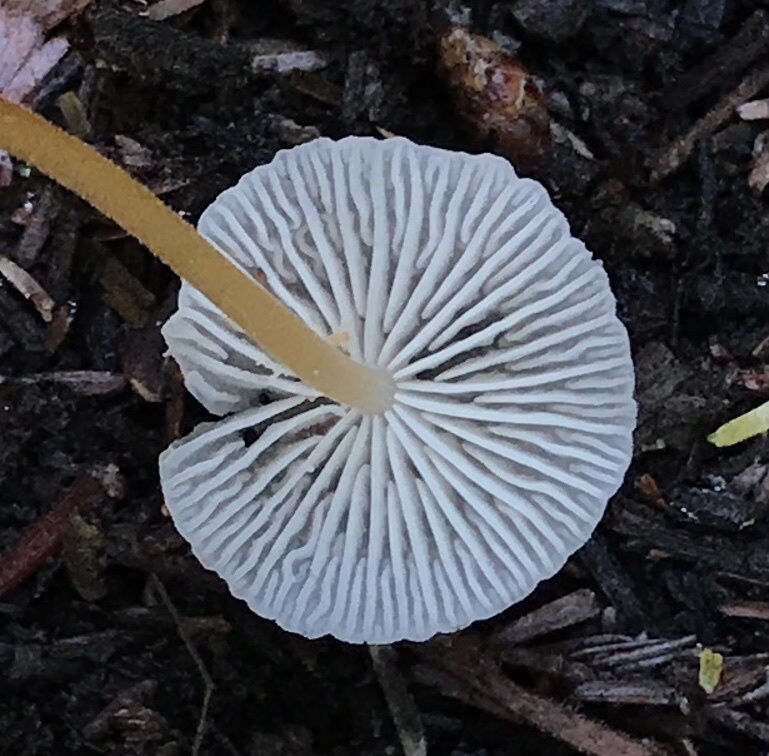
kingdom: Fungi
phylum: Basidiomycota
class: Agaricomycetes
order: Agaricales
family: Physalacriaceae
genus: Strobilurus
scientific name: Strobilurus trullisatus
